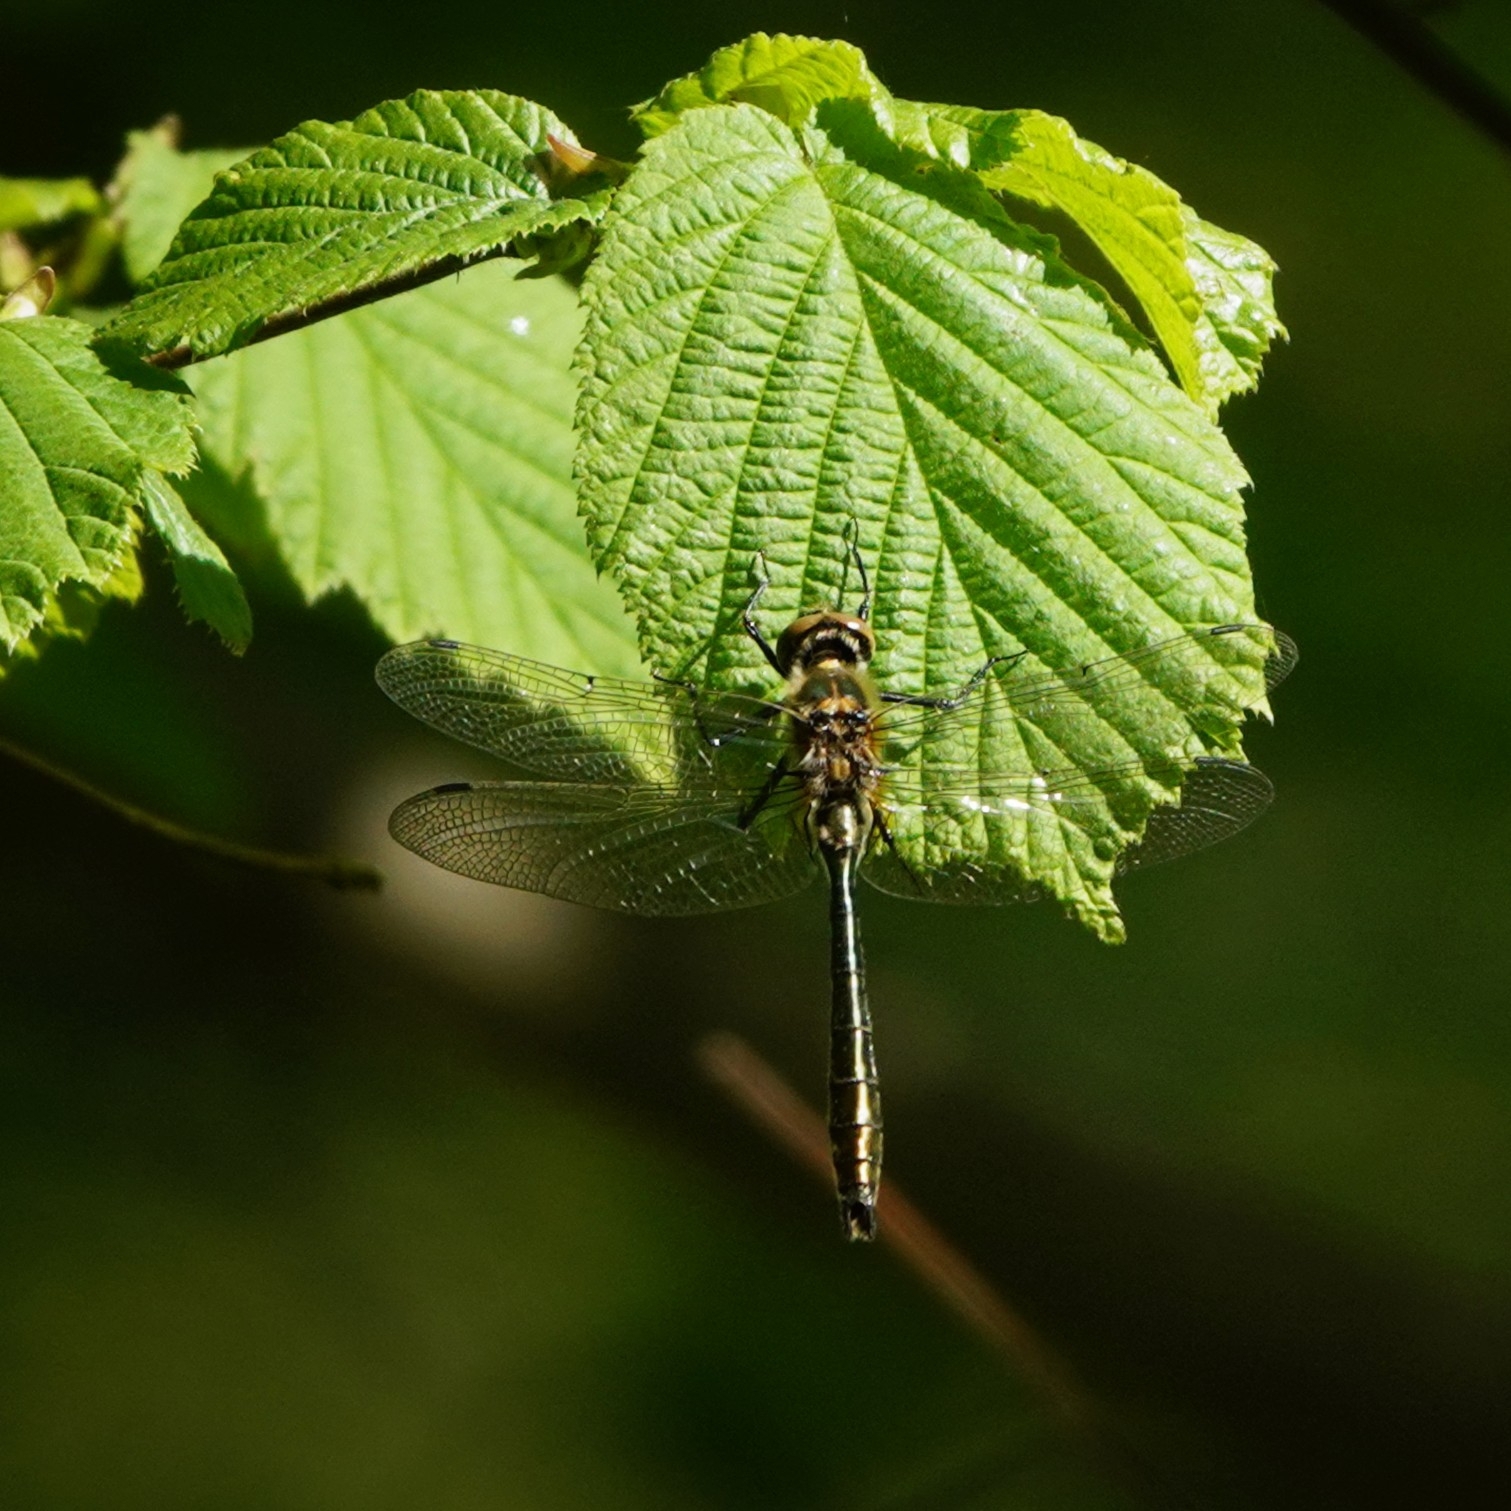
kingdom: Animalia
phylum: Arthropoda
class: Insecta
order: Odonata
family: Corduliidae
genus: Cordulia
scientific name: Cordulia aenea
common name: Downy emerald
